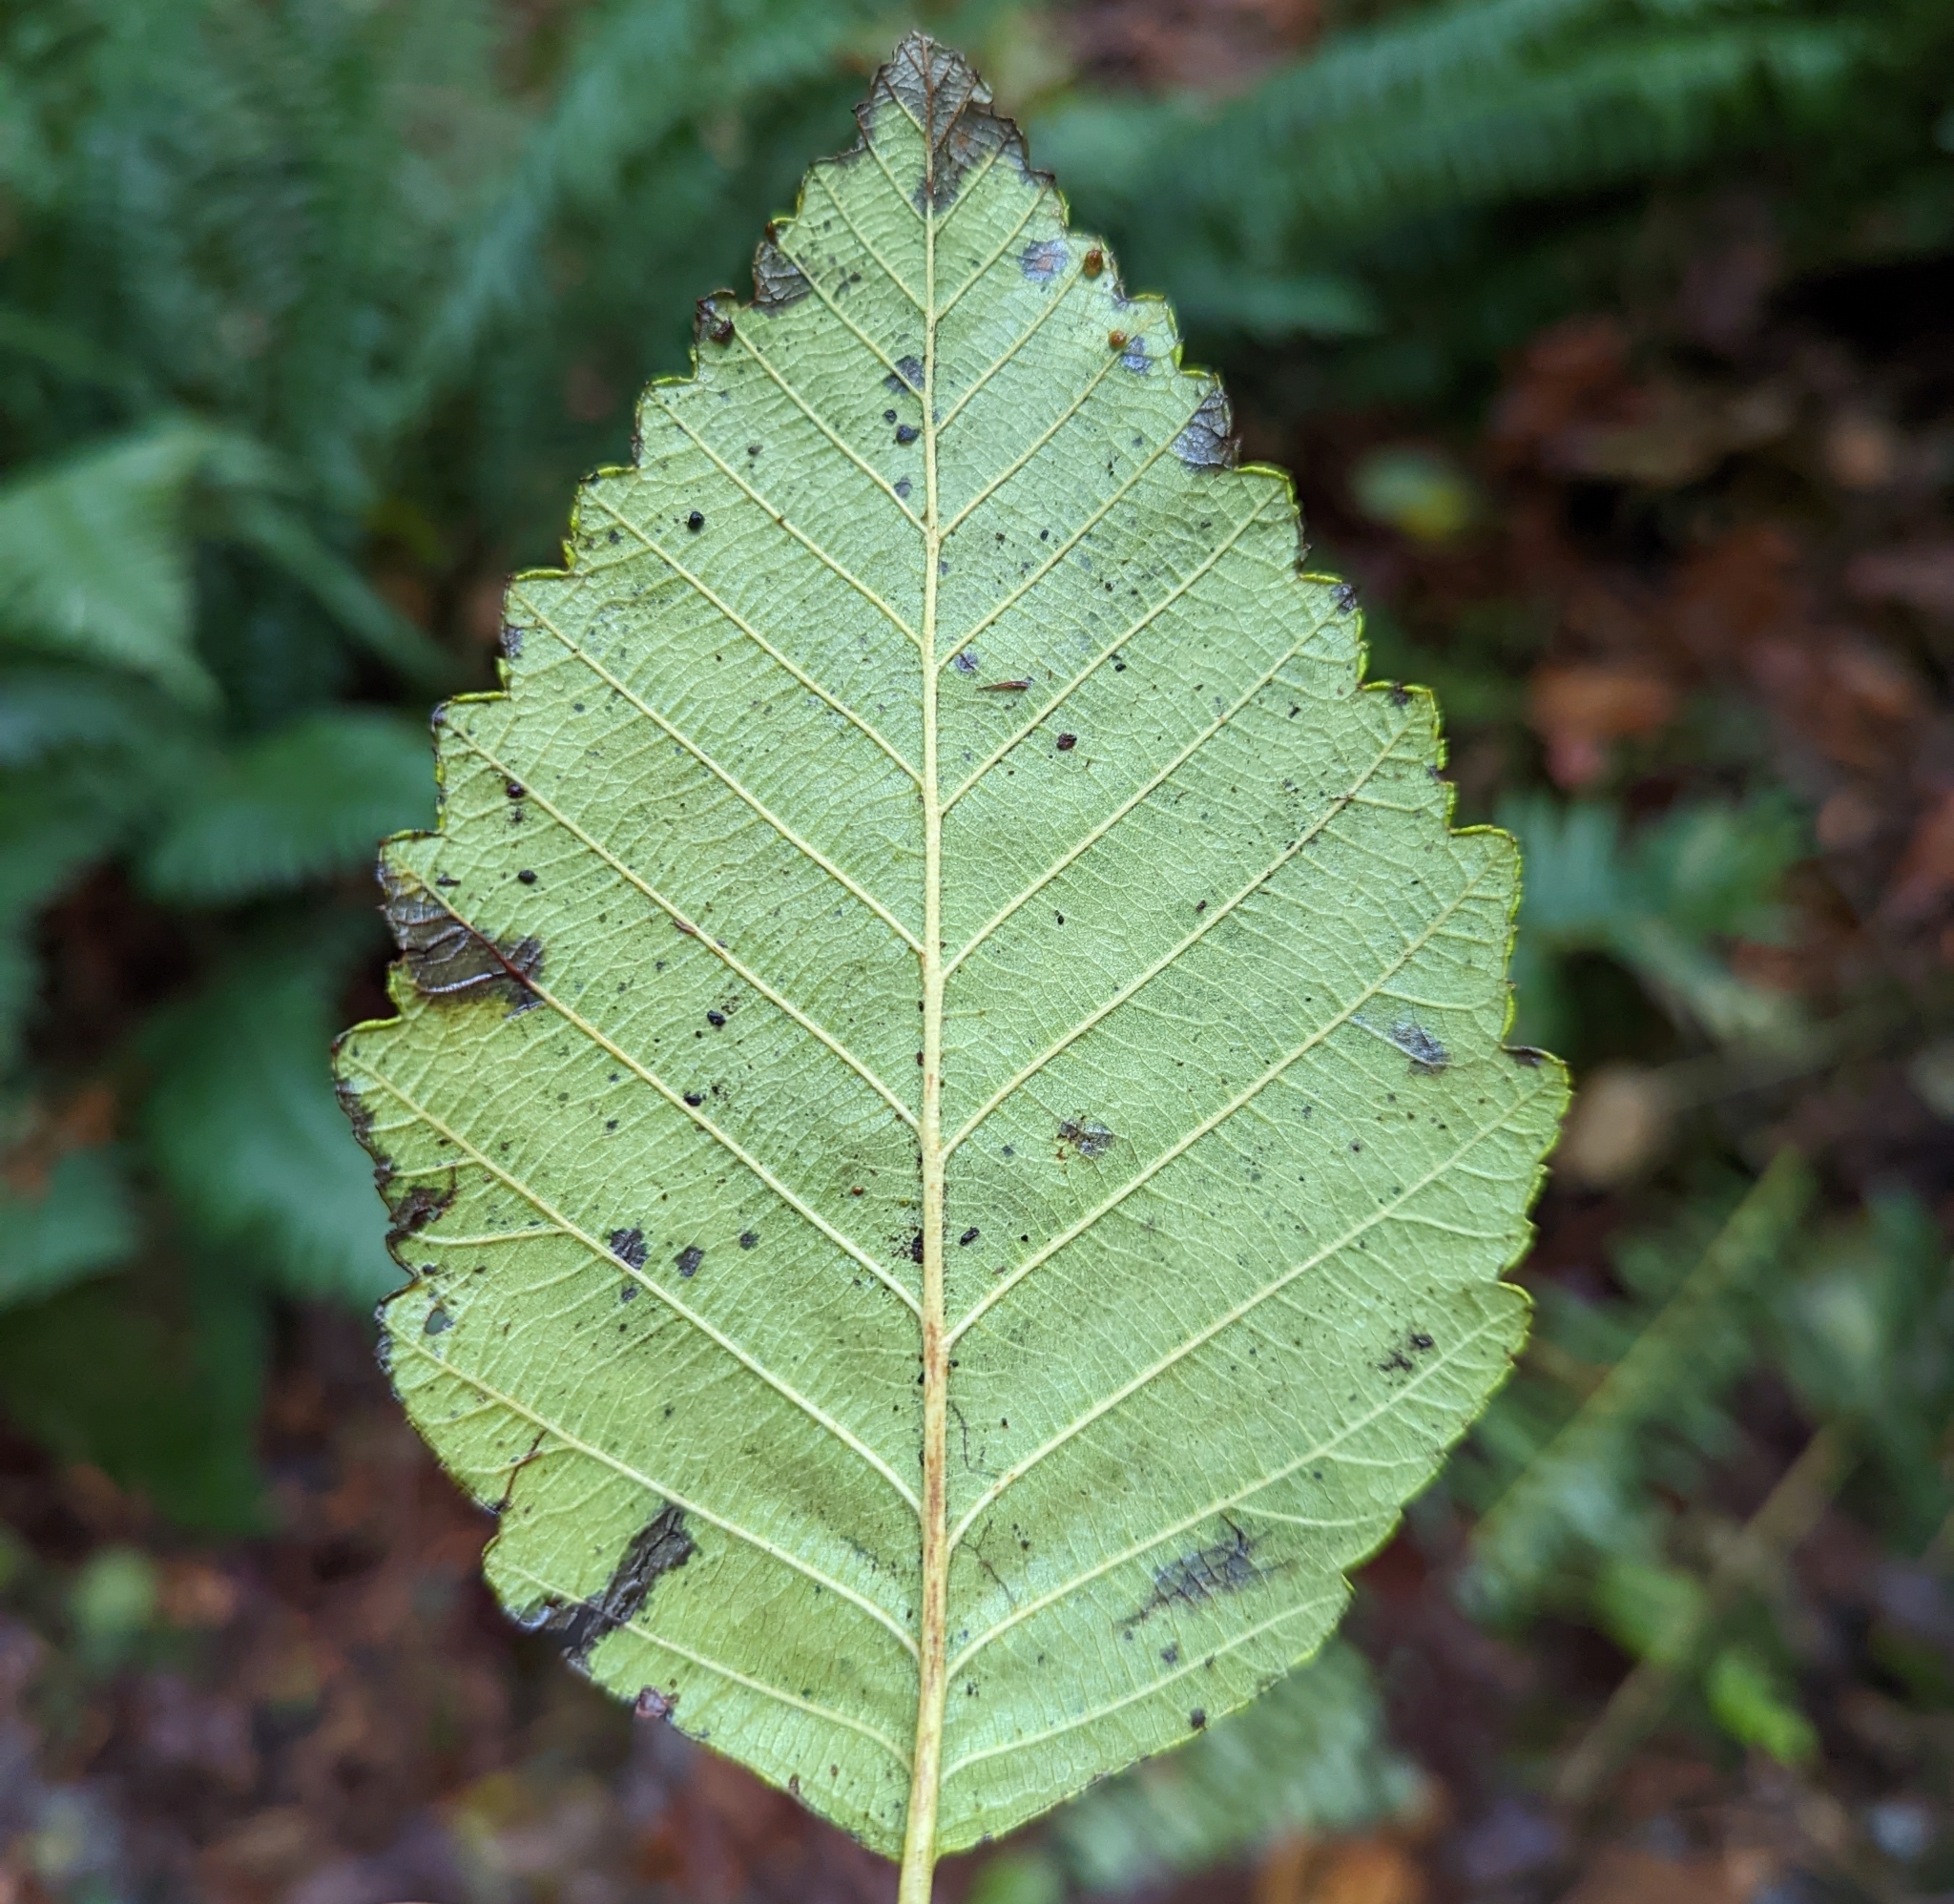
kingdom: Plantae
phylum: Tracheophyta
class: Magnoliopsida
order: Fagales
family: Betulaceae
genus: Alnus
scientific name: Alnus rubra
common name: Red alder
